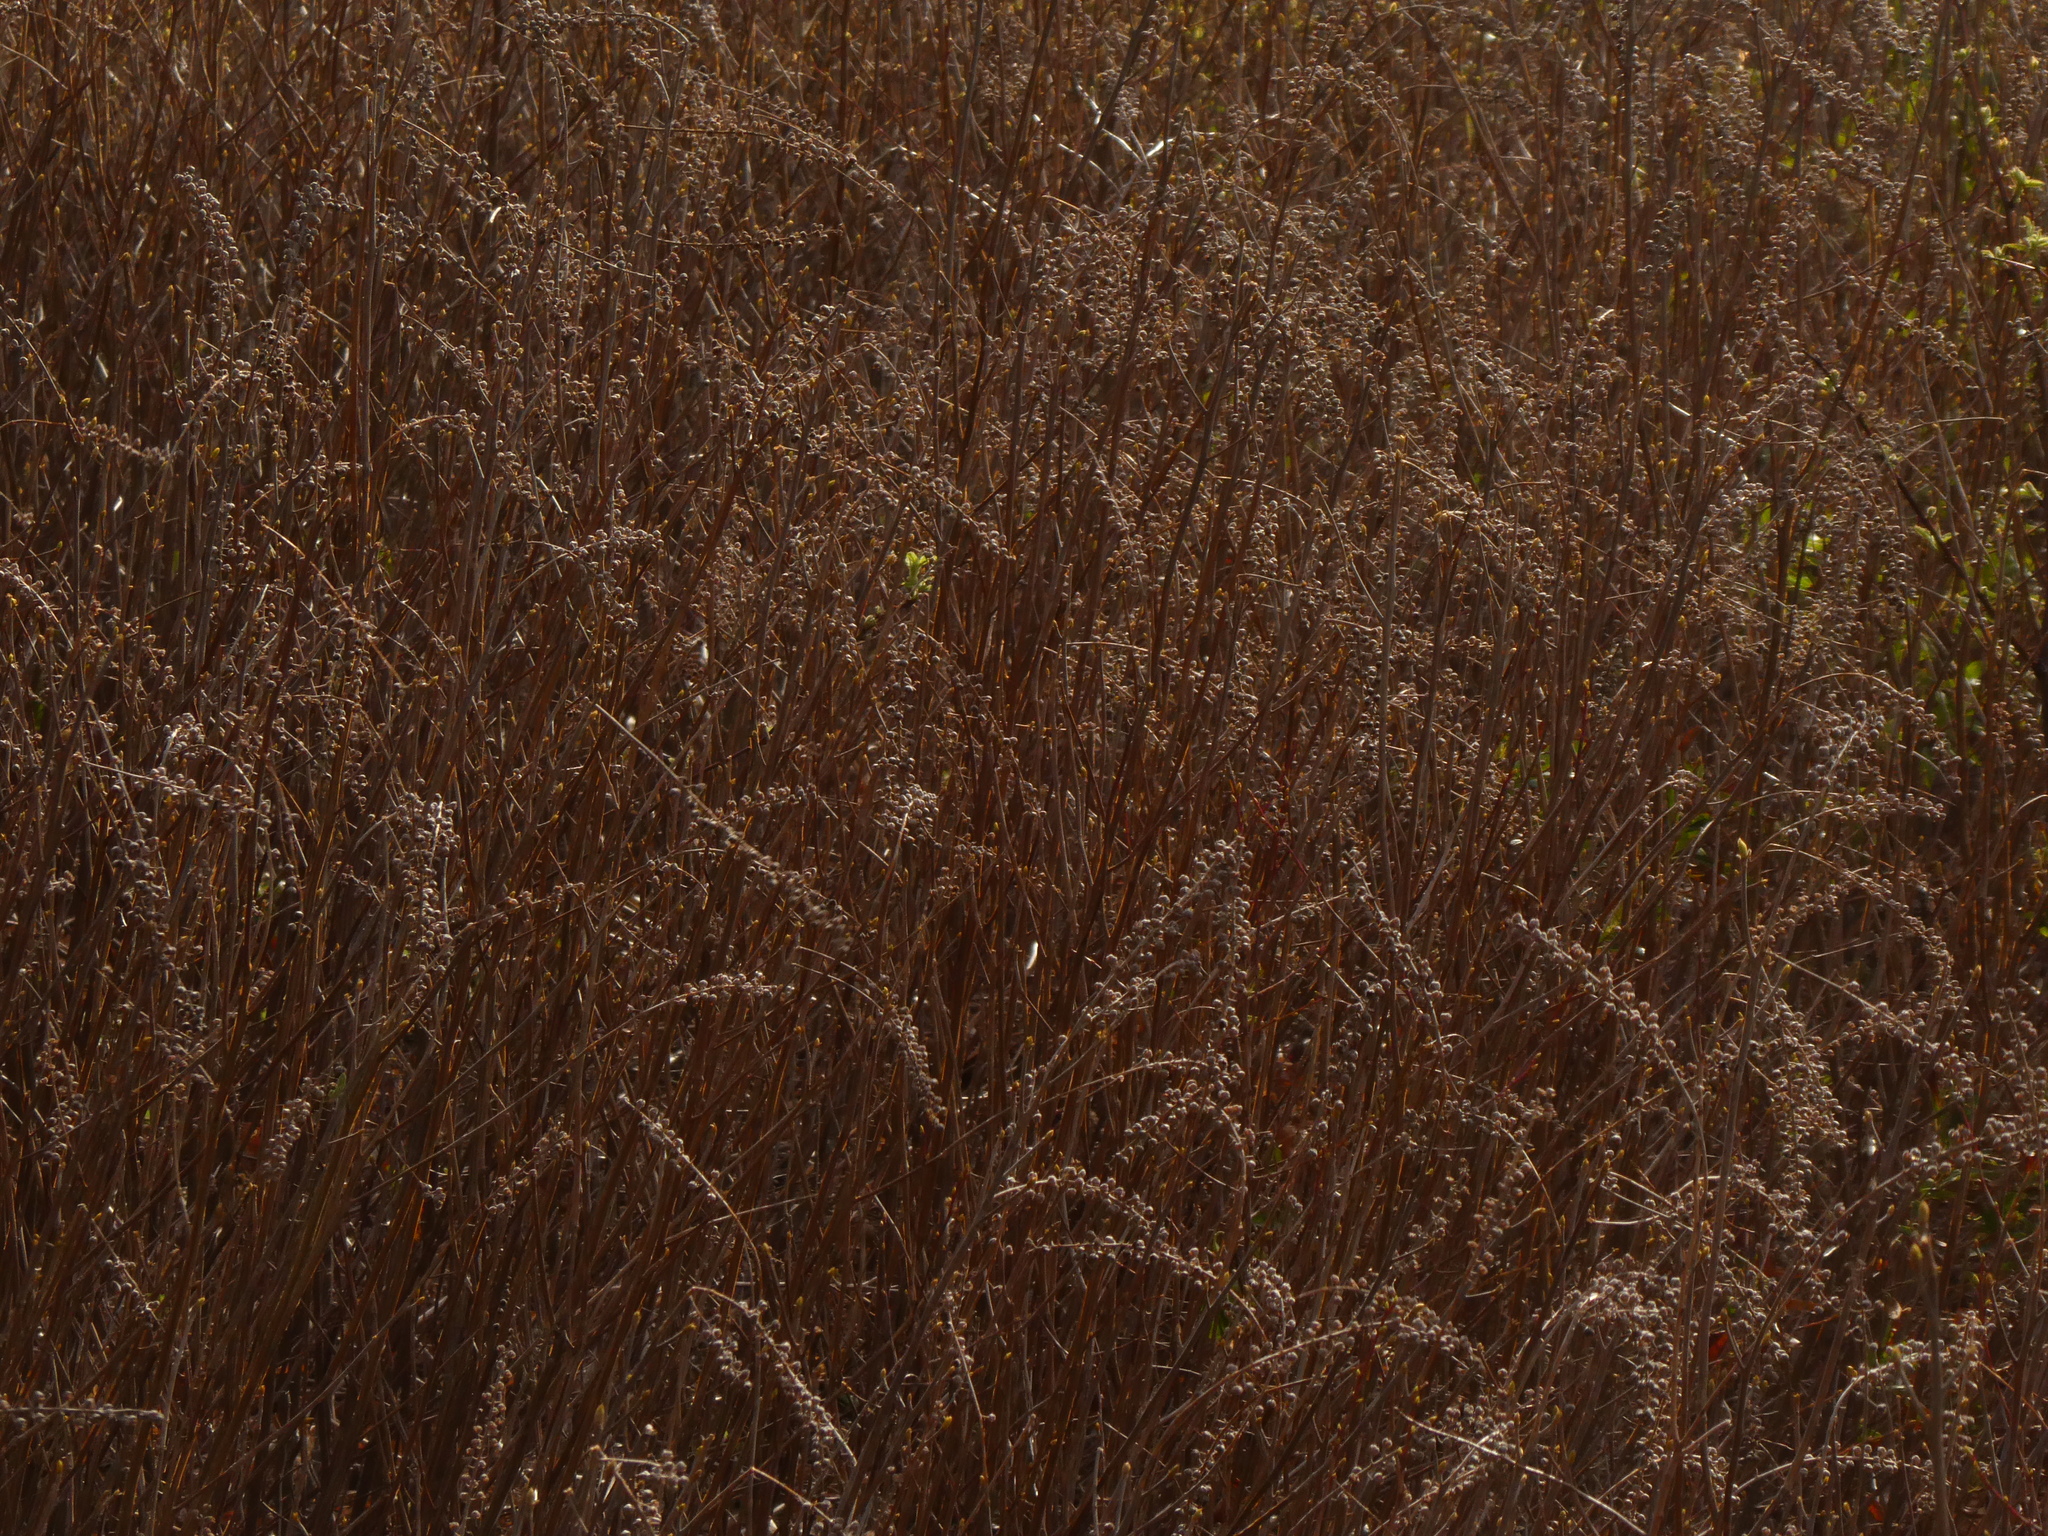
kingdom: Plantae
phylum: Tracheophyta
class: Magnoliopsida
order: Ericales
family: Clethraceae
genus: Clethra
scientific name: Clethra alnifolia
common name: Sweet pepperbush
